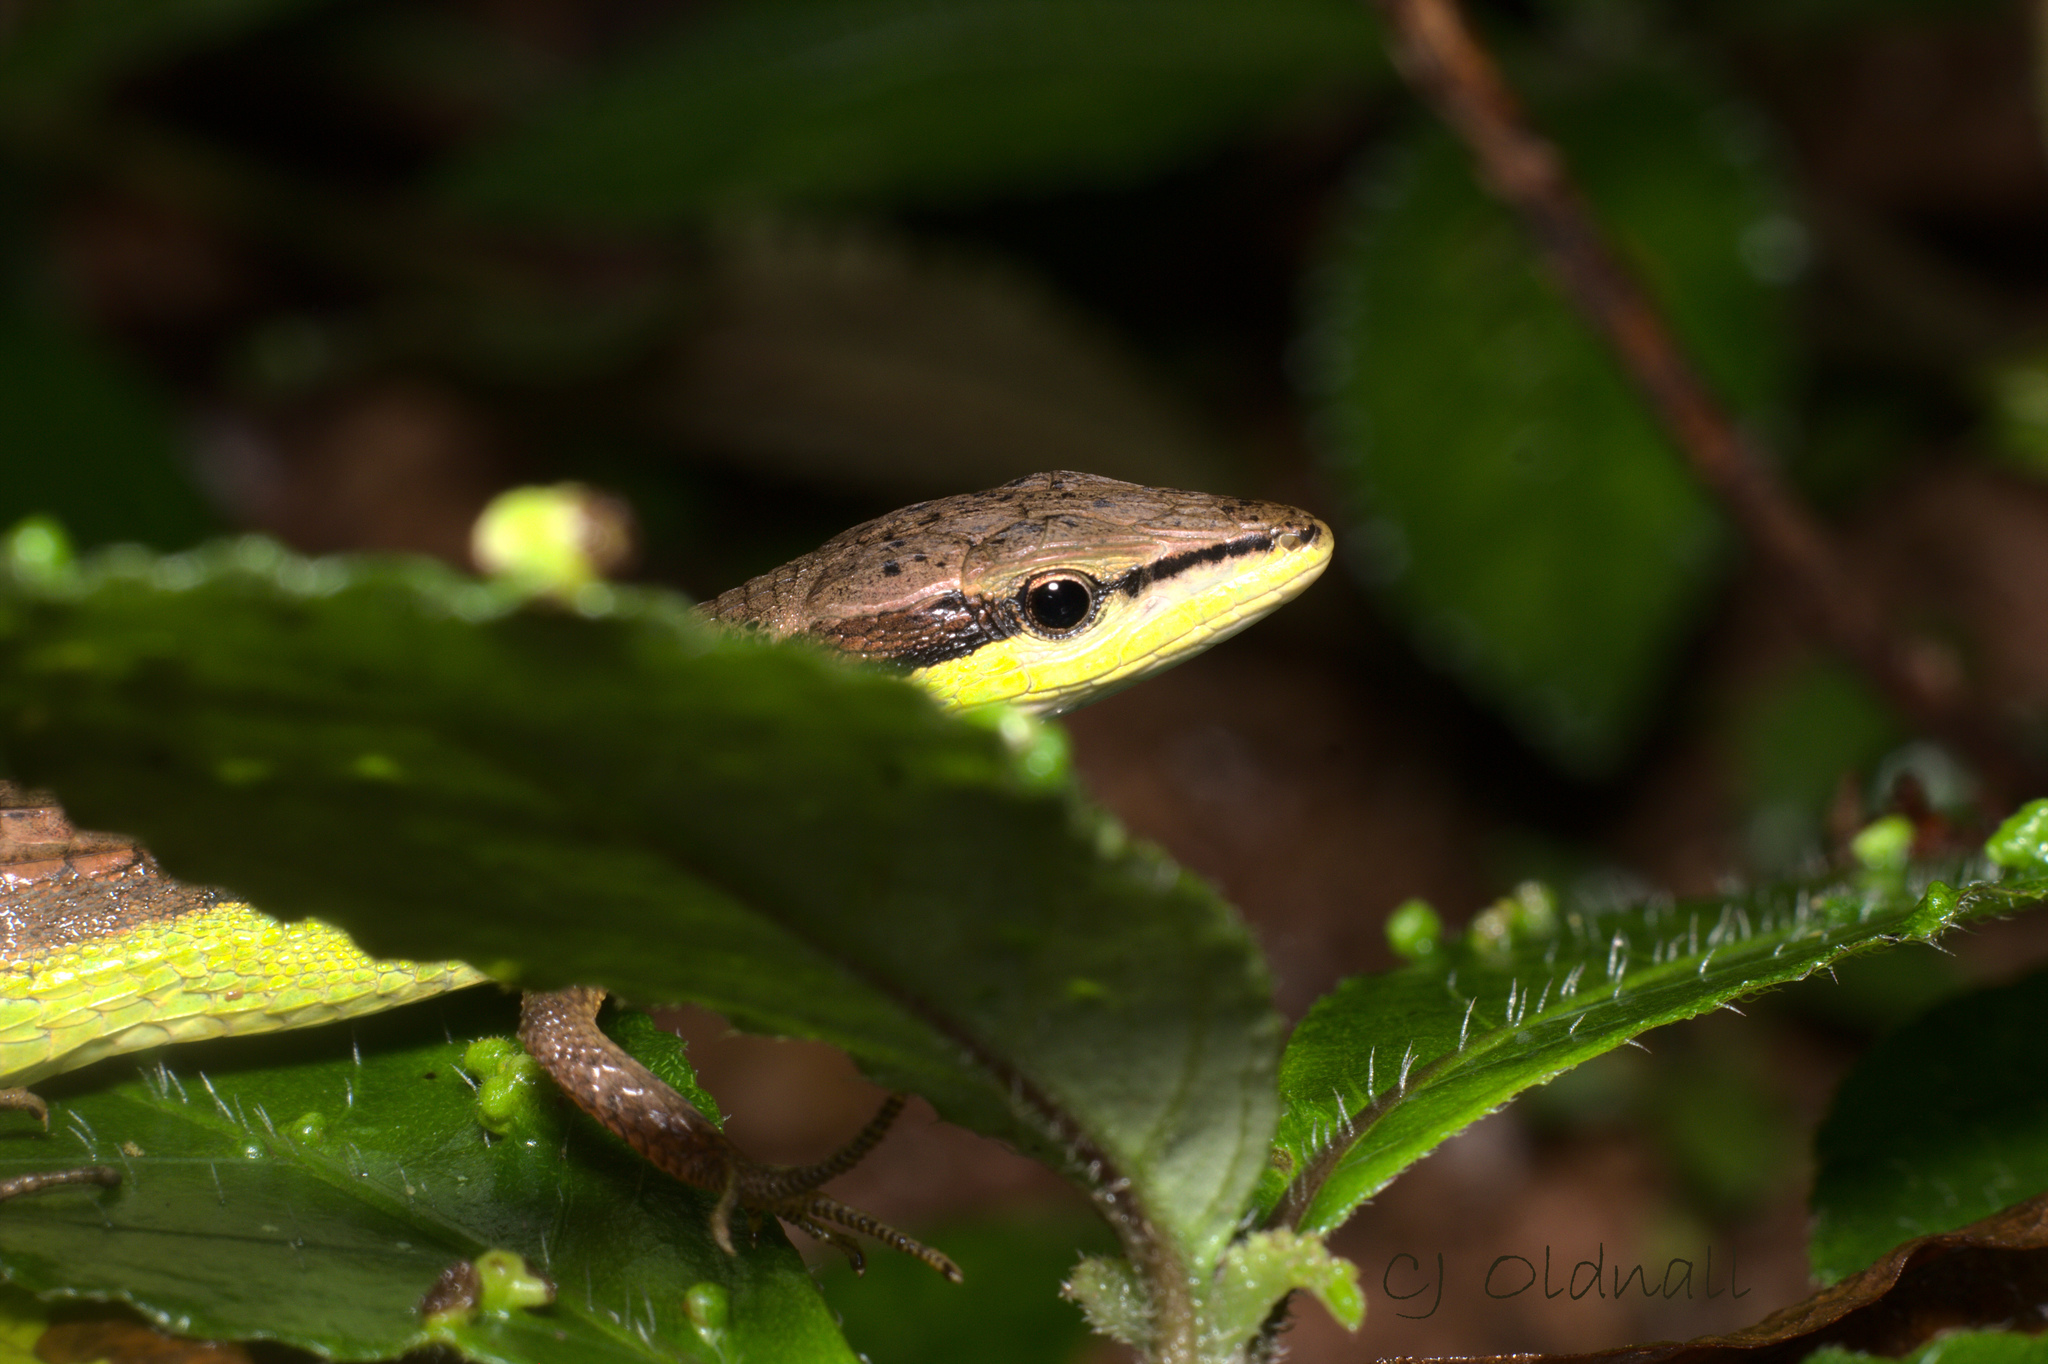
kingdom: Animalia
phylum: Chordata
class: Squamata
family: Lacertidae
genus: Takydromus
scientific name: Takydromus sexlineatus
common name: Asian grass lizard
